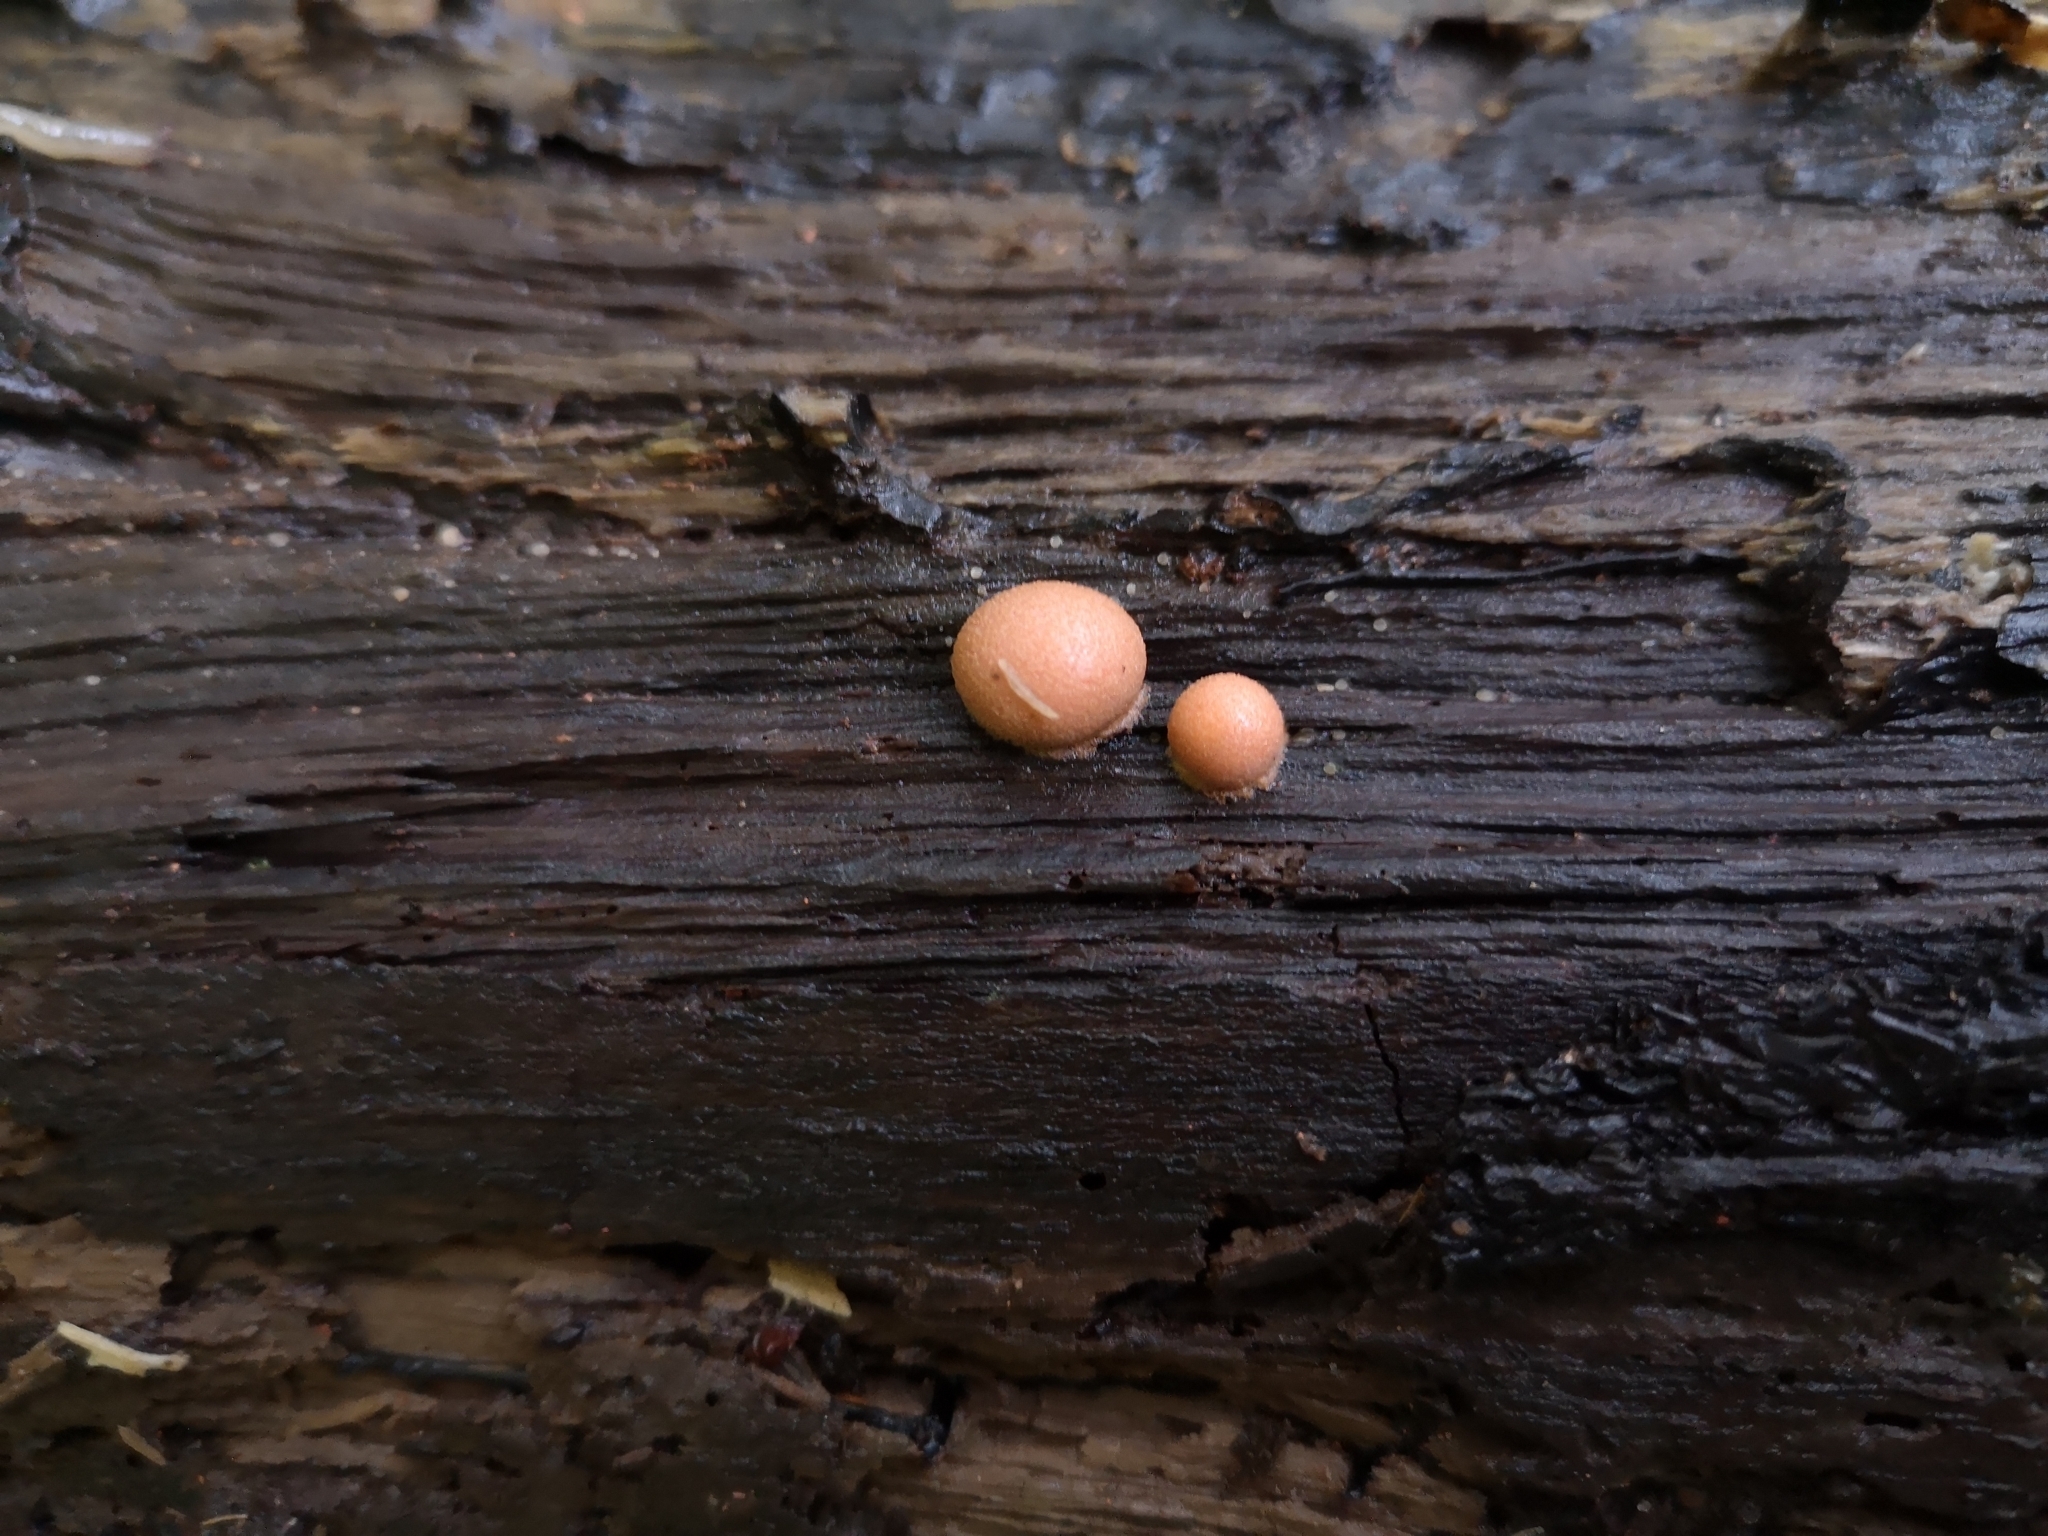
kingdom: Protozoa
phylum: Mycetozoa
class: Myxomycetes
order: Cribrariales
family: Tubiferaceae
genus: Lycogala
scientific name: Lycogala epidendrum
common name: Wolf's milk
